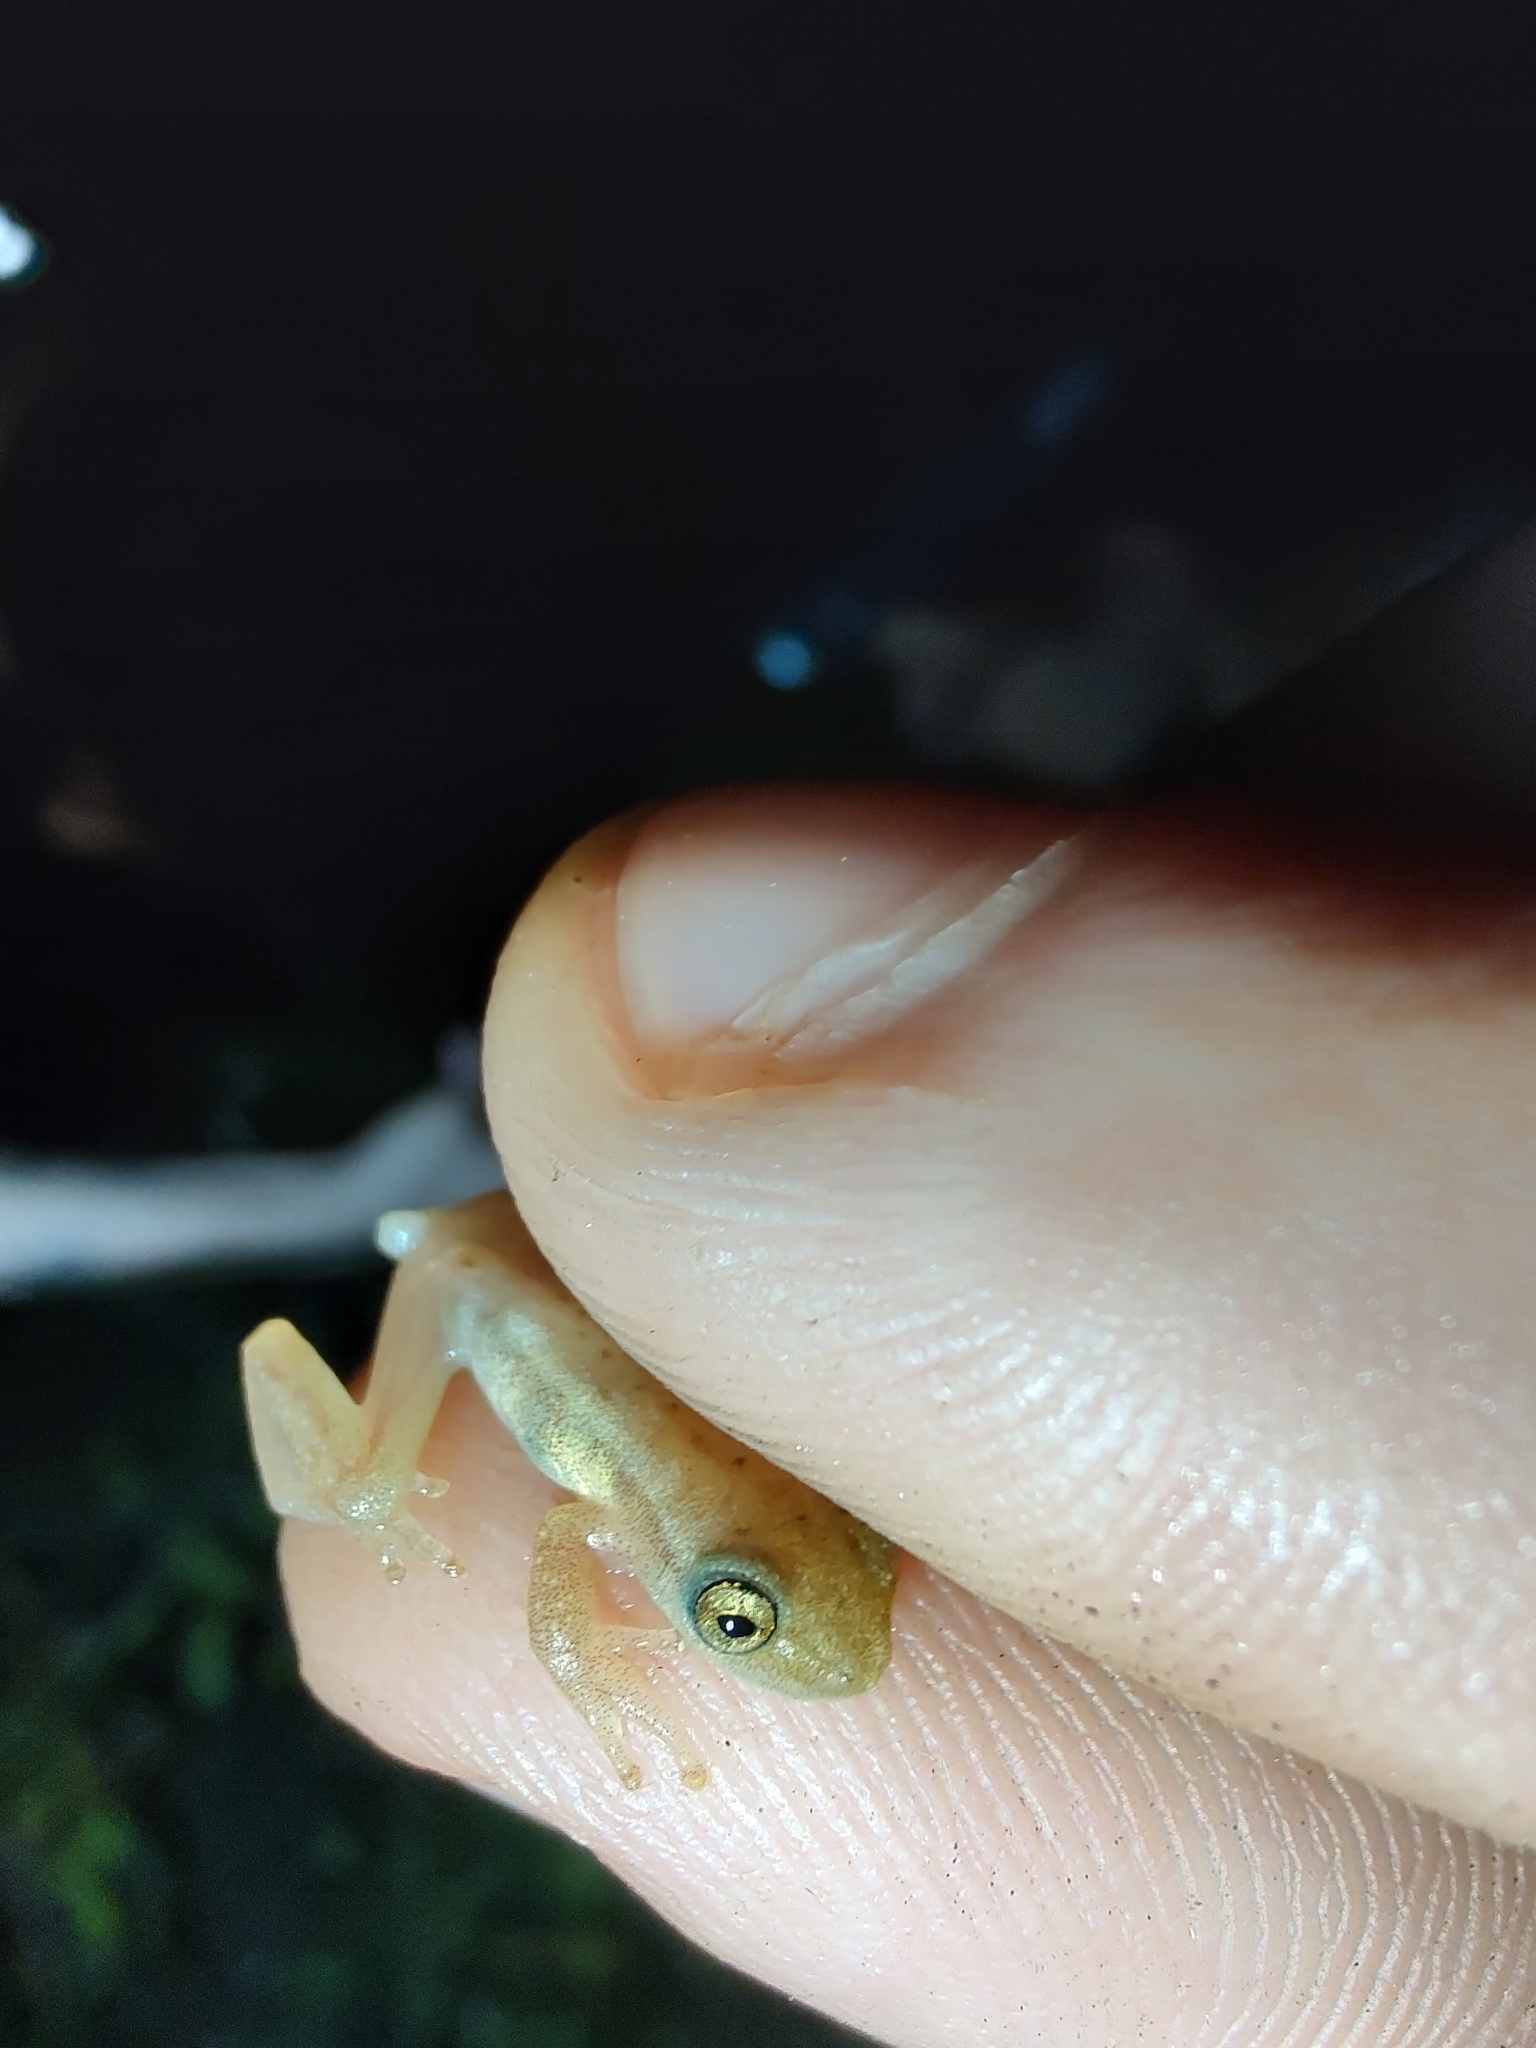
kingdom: Animalia
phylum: Chordata
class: Amphibia
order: Anura
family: Hylidae
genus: Dendropsophus
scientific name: Dendropsophus minutus
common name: Lesser treefrog
